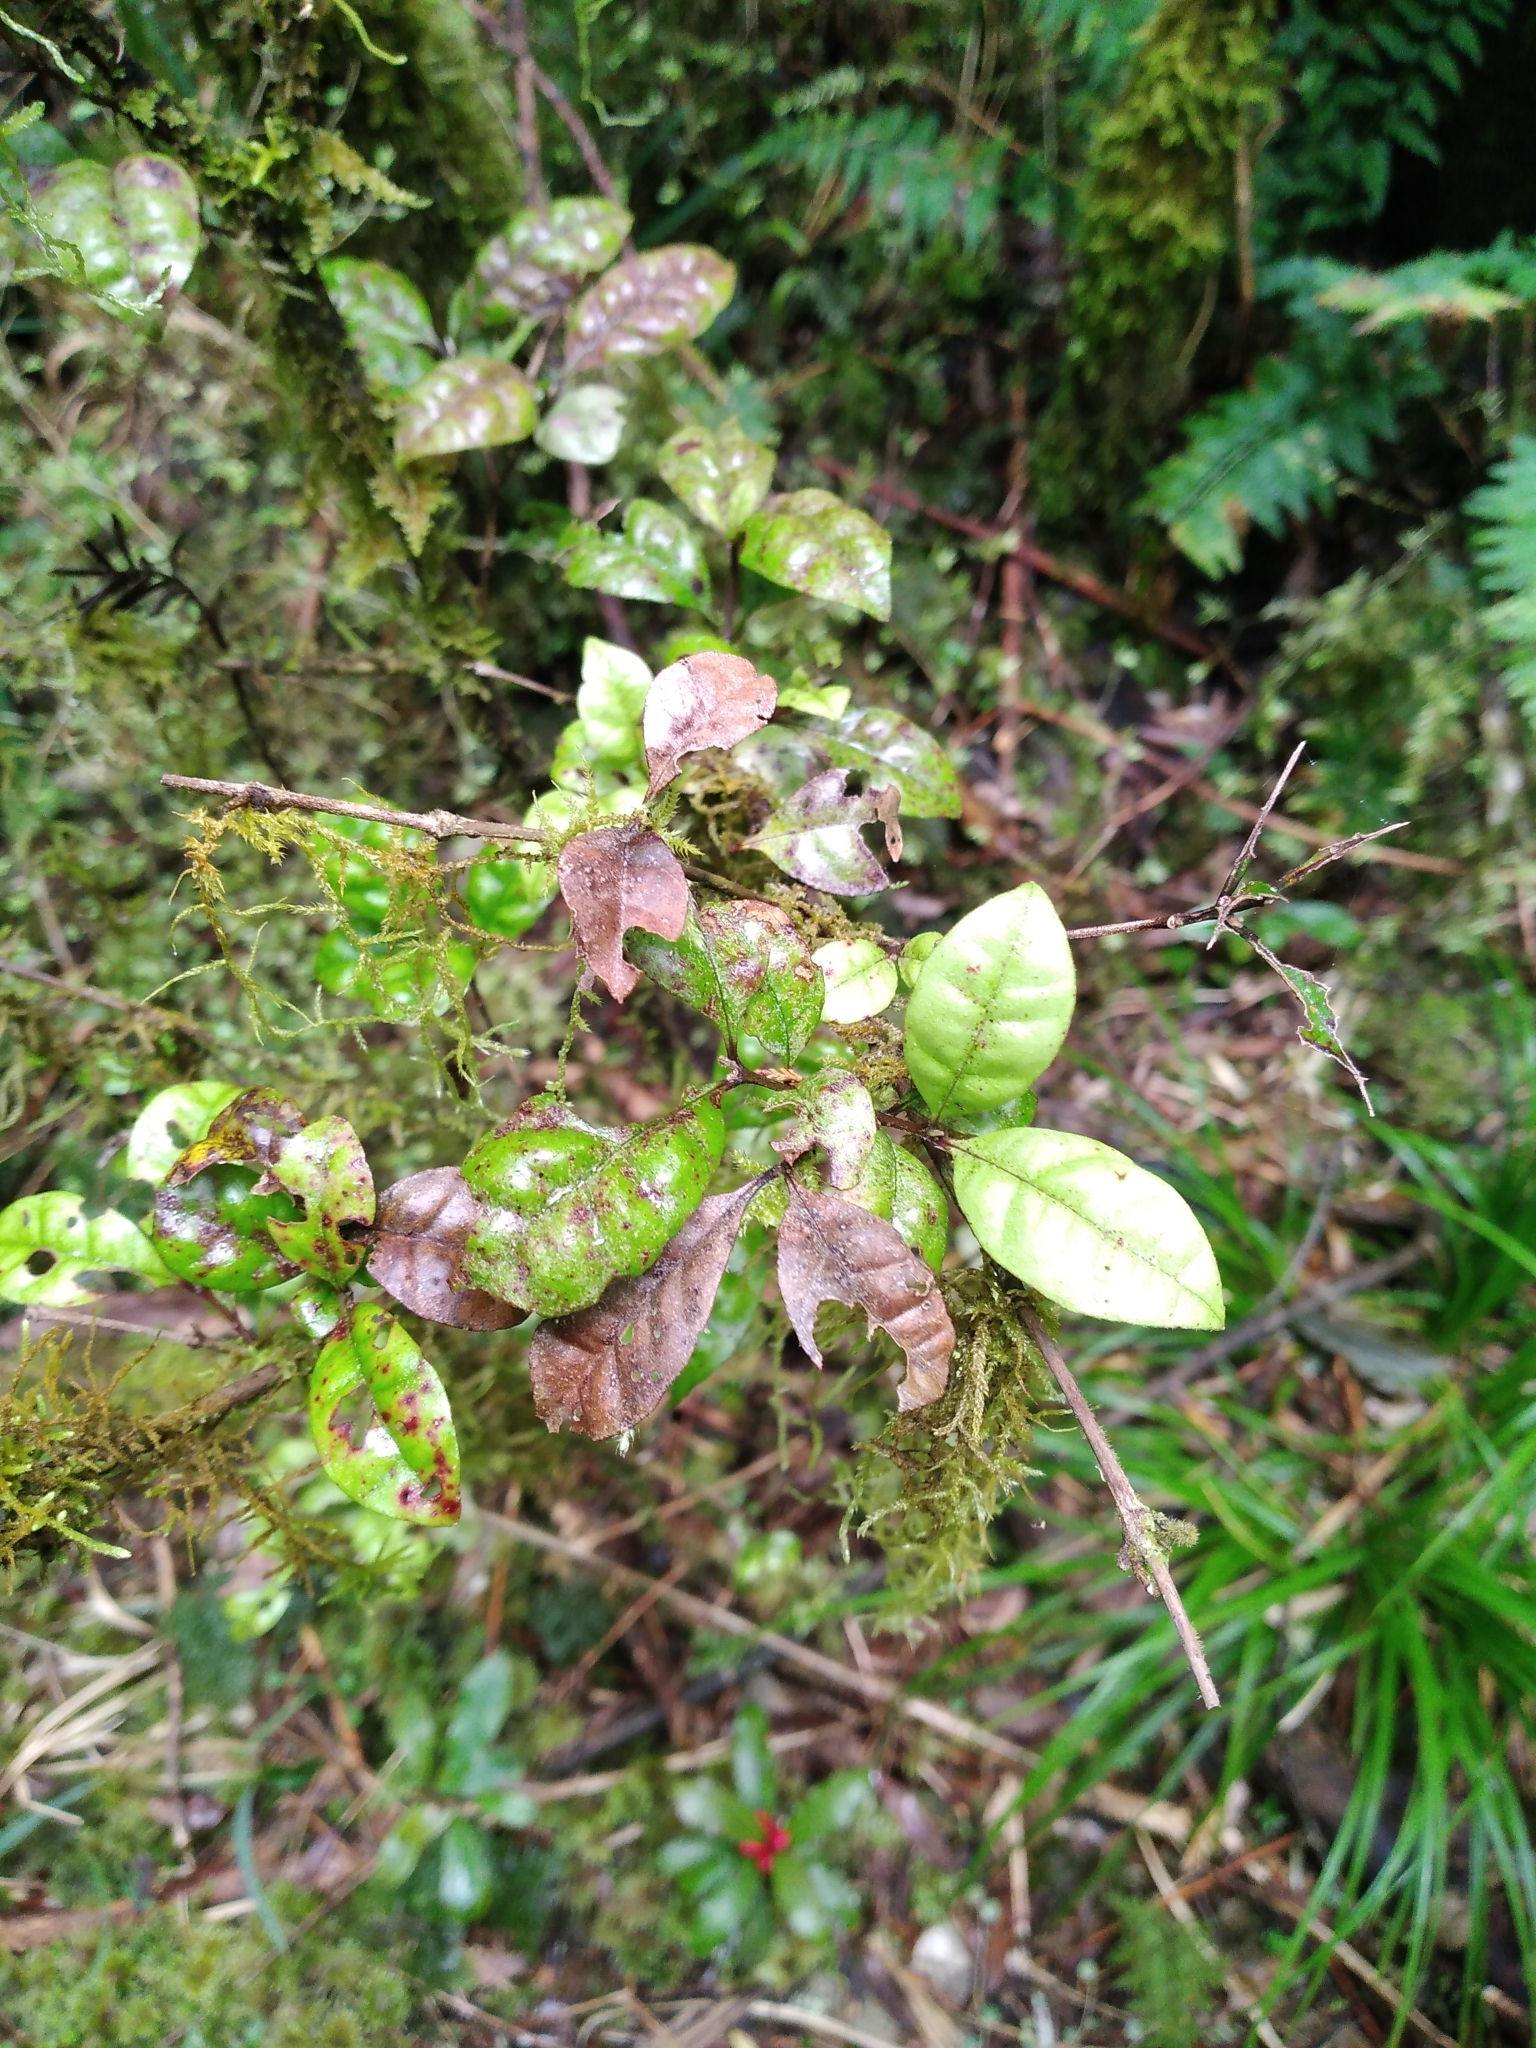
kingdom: Fungi
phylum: Basidiomycota
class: Pucciniomycetes
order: Pucciniales
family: Sphaerophragmiaceae
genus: Austropuccinia
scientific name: Austropuccinia psidii
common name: Myrtle rust
